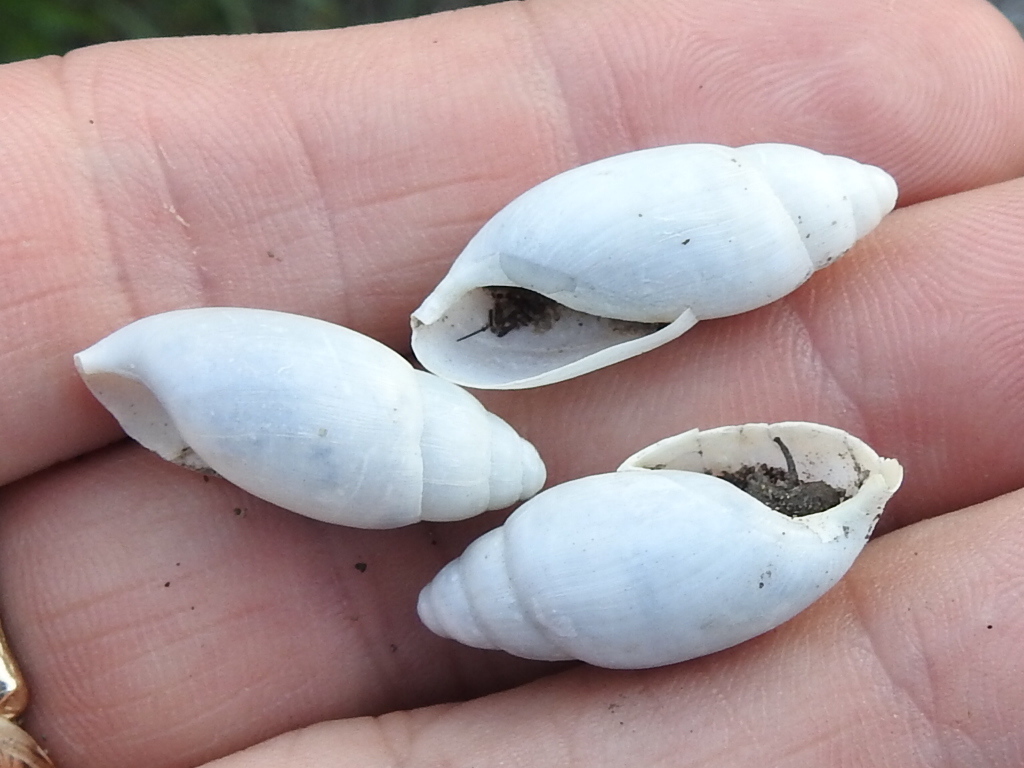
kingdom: Animalia
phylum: Mollusca
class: Gastropoda
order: Stylommatophora
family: Spiraxidae
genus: Euglandina
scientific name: Euglandina texasiana
